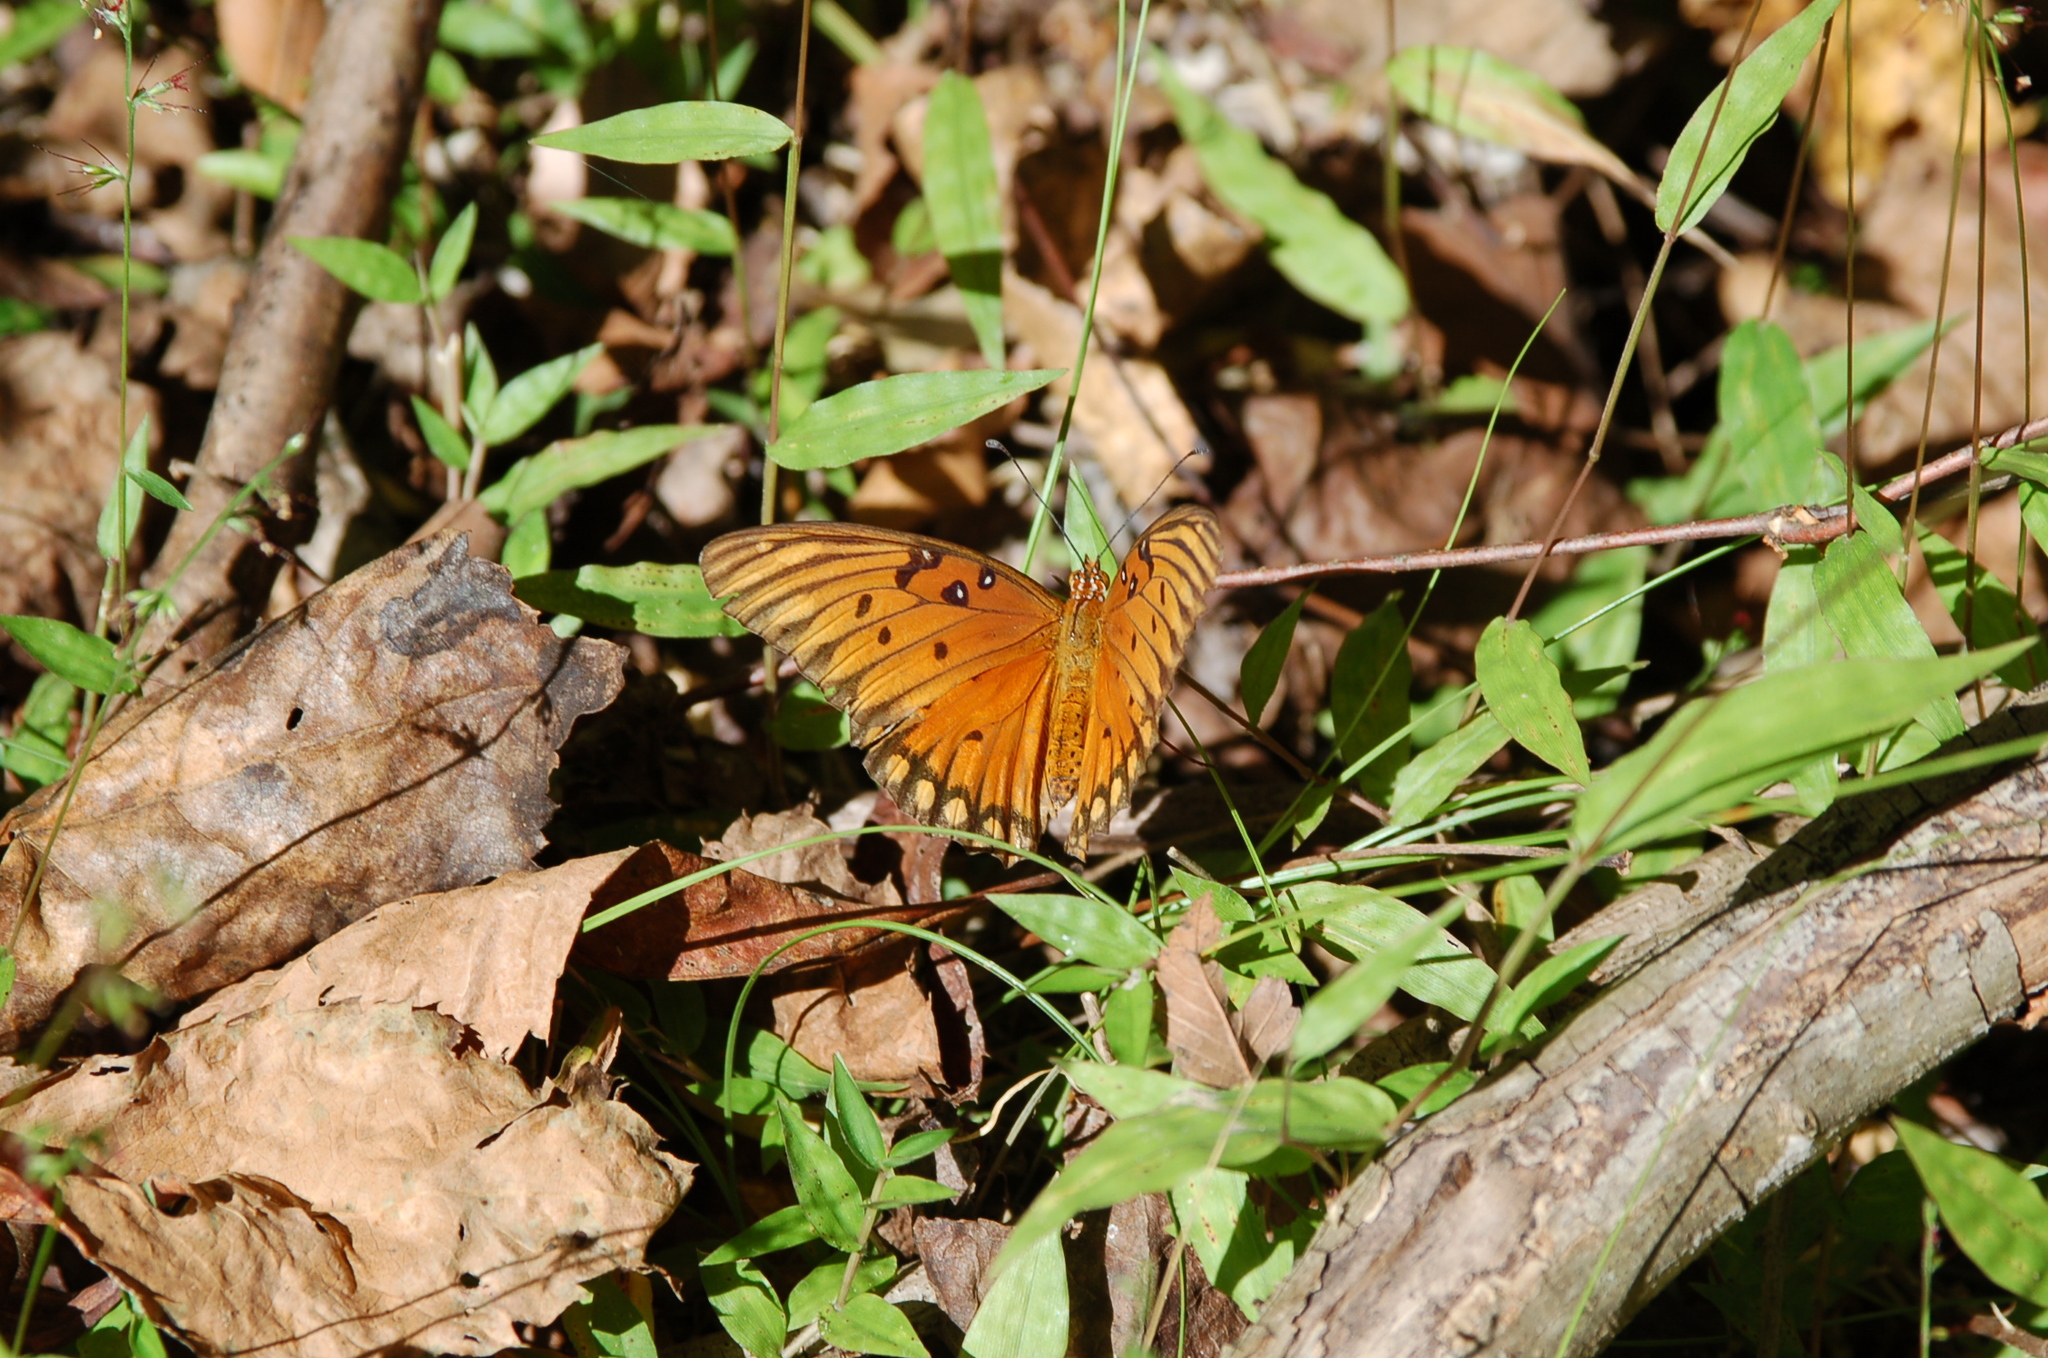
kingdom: Animalia
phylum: Arthropoda
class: Insecta
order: Lepidoptera
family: Nymphalidae
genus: Dione
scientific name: Dione vanillae
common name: Gulf fritillary
